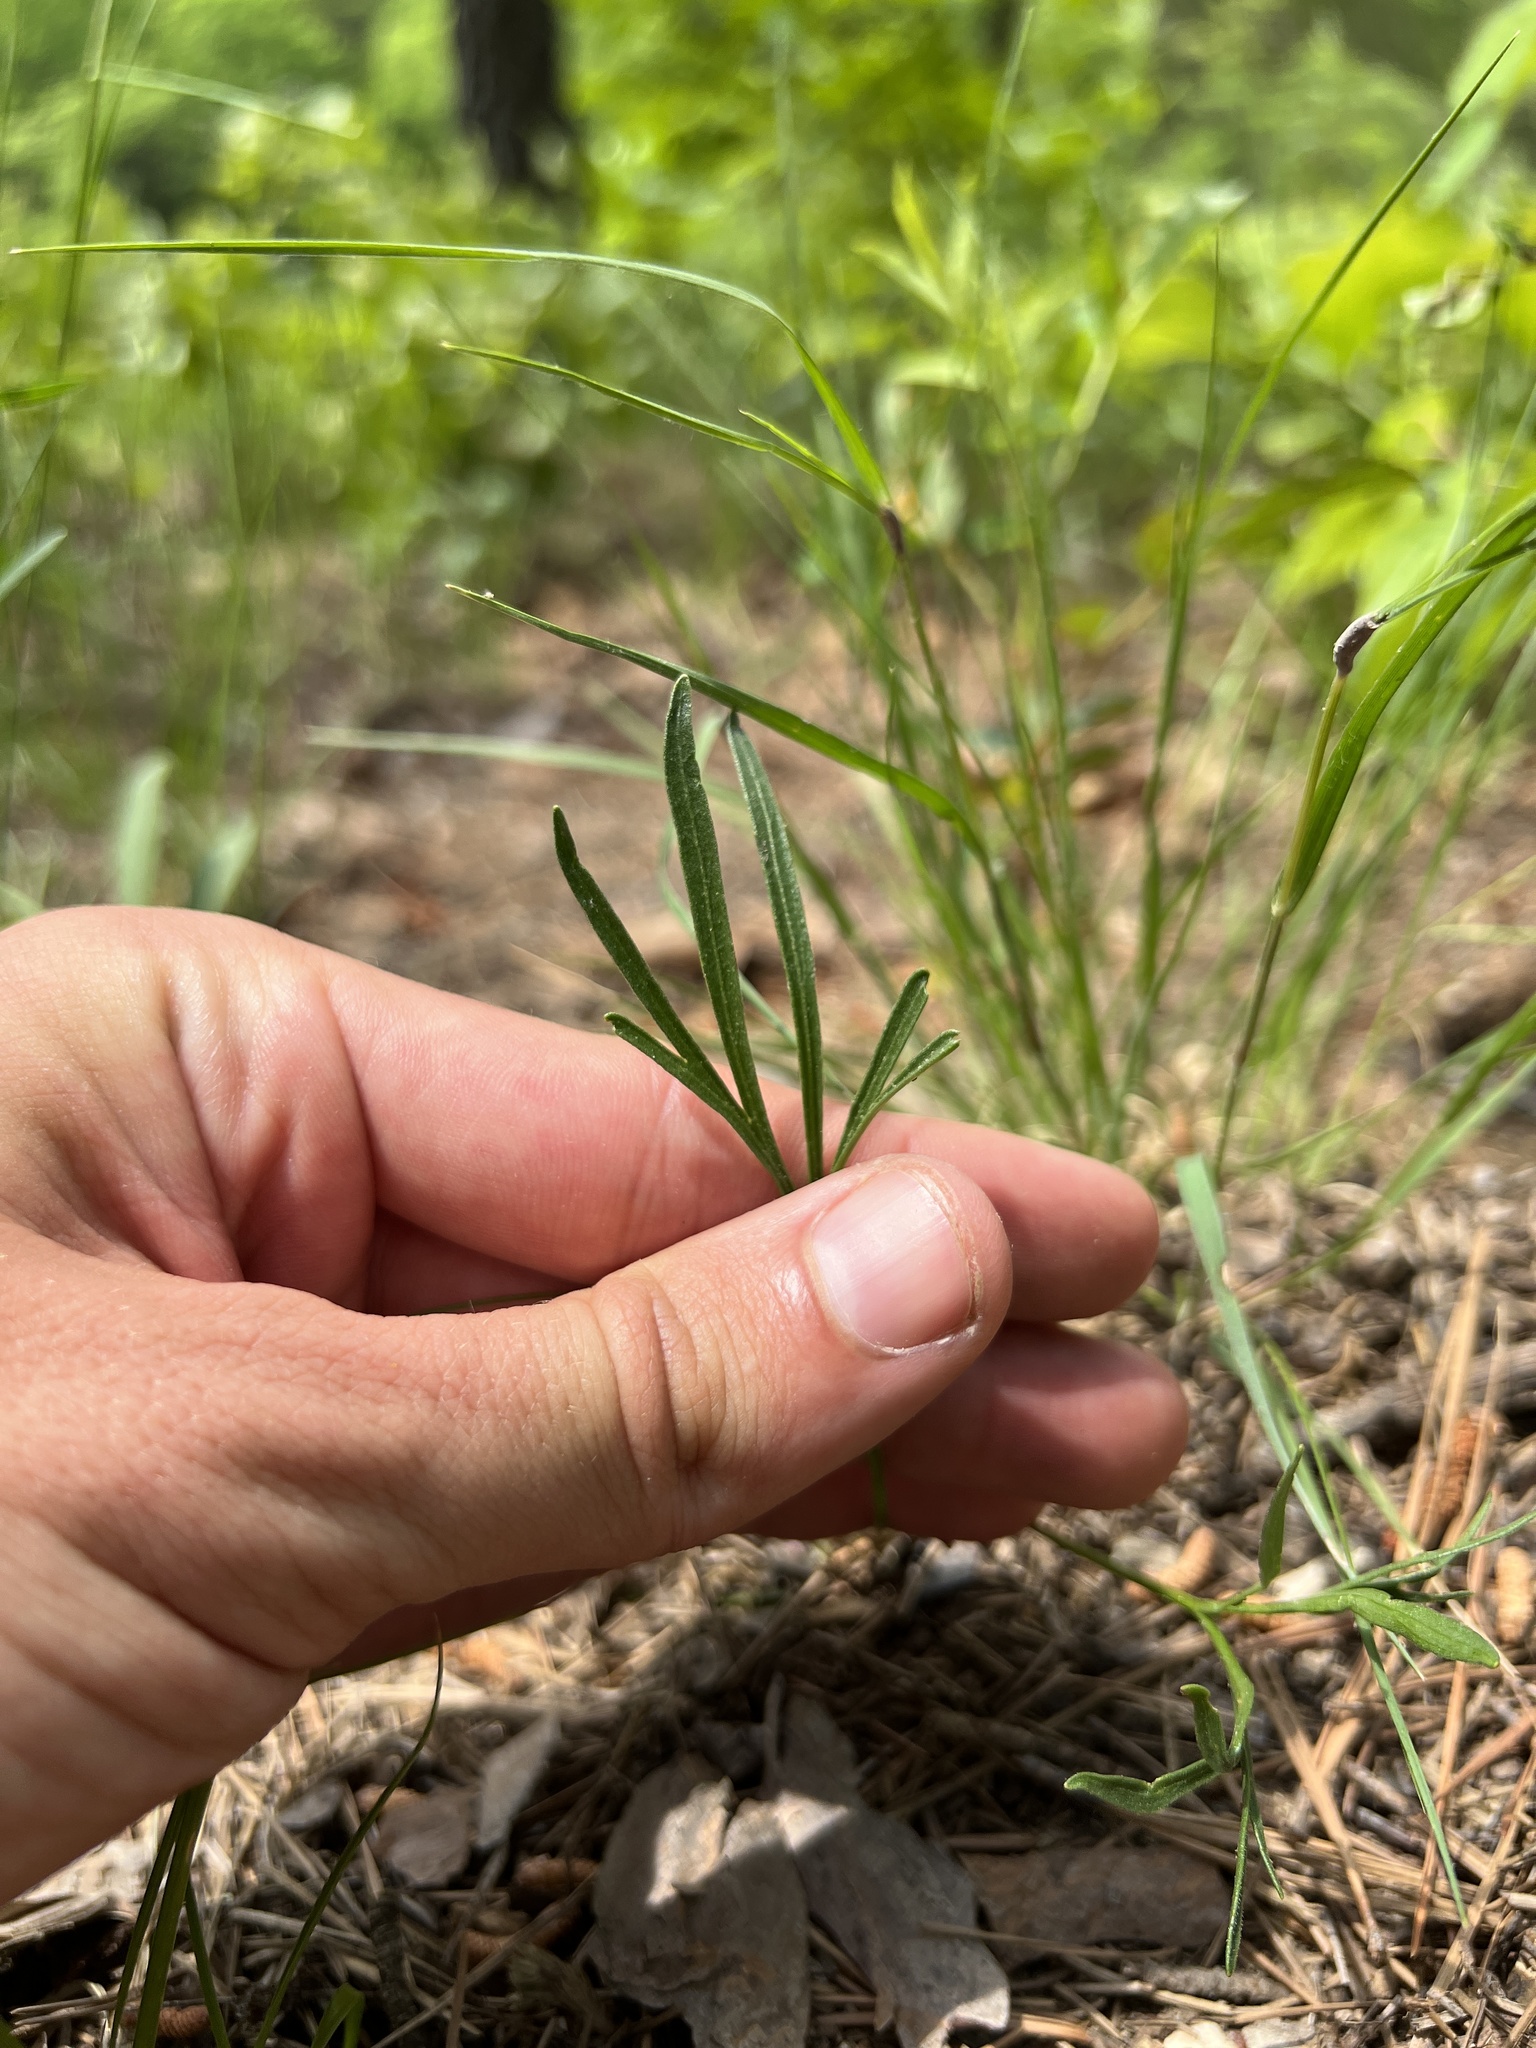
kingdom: Plantae
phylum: Tracheophyta
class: Magnoliopsida
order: Malpighiales
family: Violaceae
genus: Viola
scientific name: Viola pedata
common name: Pansy violet
